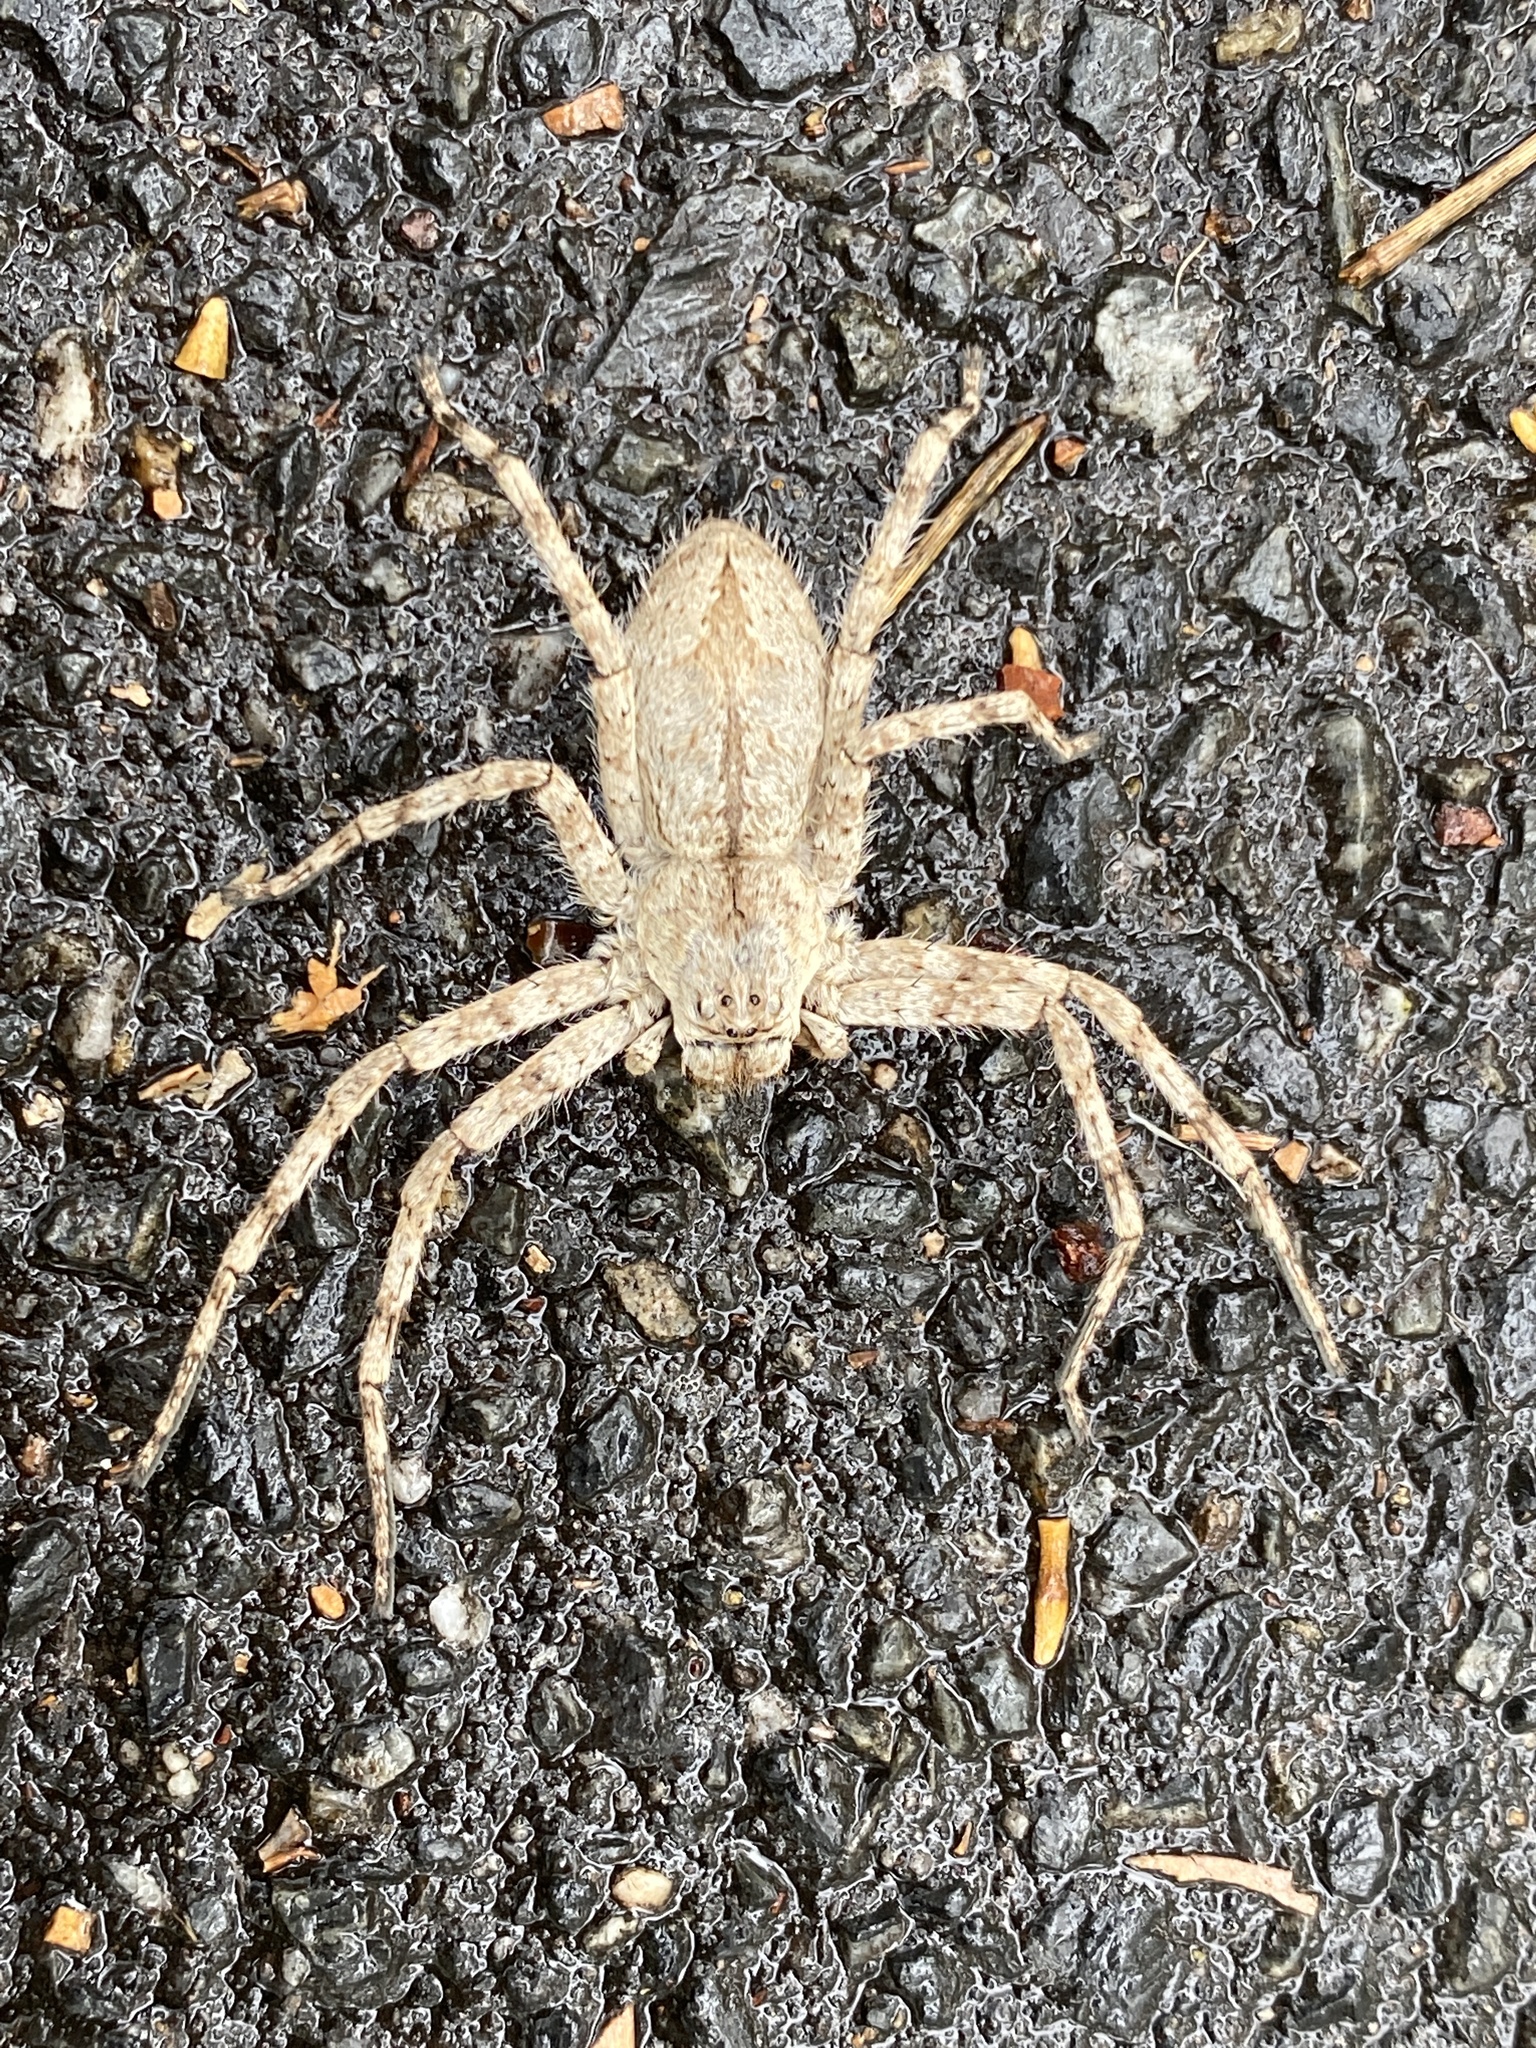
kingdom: Animalia
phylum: Arthropoda
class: Arachnida
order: Araneae
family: Sparassidae
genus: Pediana
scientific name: Pediana regina
